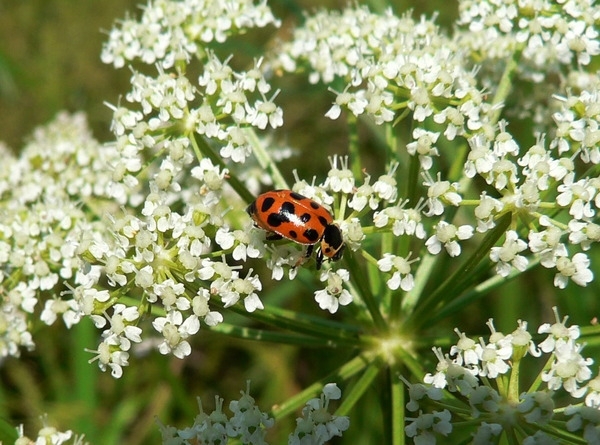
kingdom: Animalia
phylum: Arthropoda
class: Insecta
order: Coleoptera
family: Coccinellidae
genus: Hippodamia
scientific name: Hippodamia tredecimpunctata
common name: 13-spot ladybird
